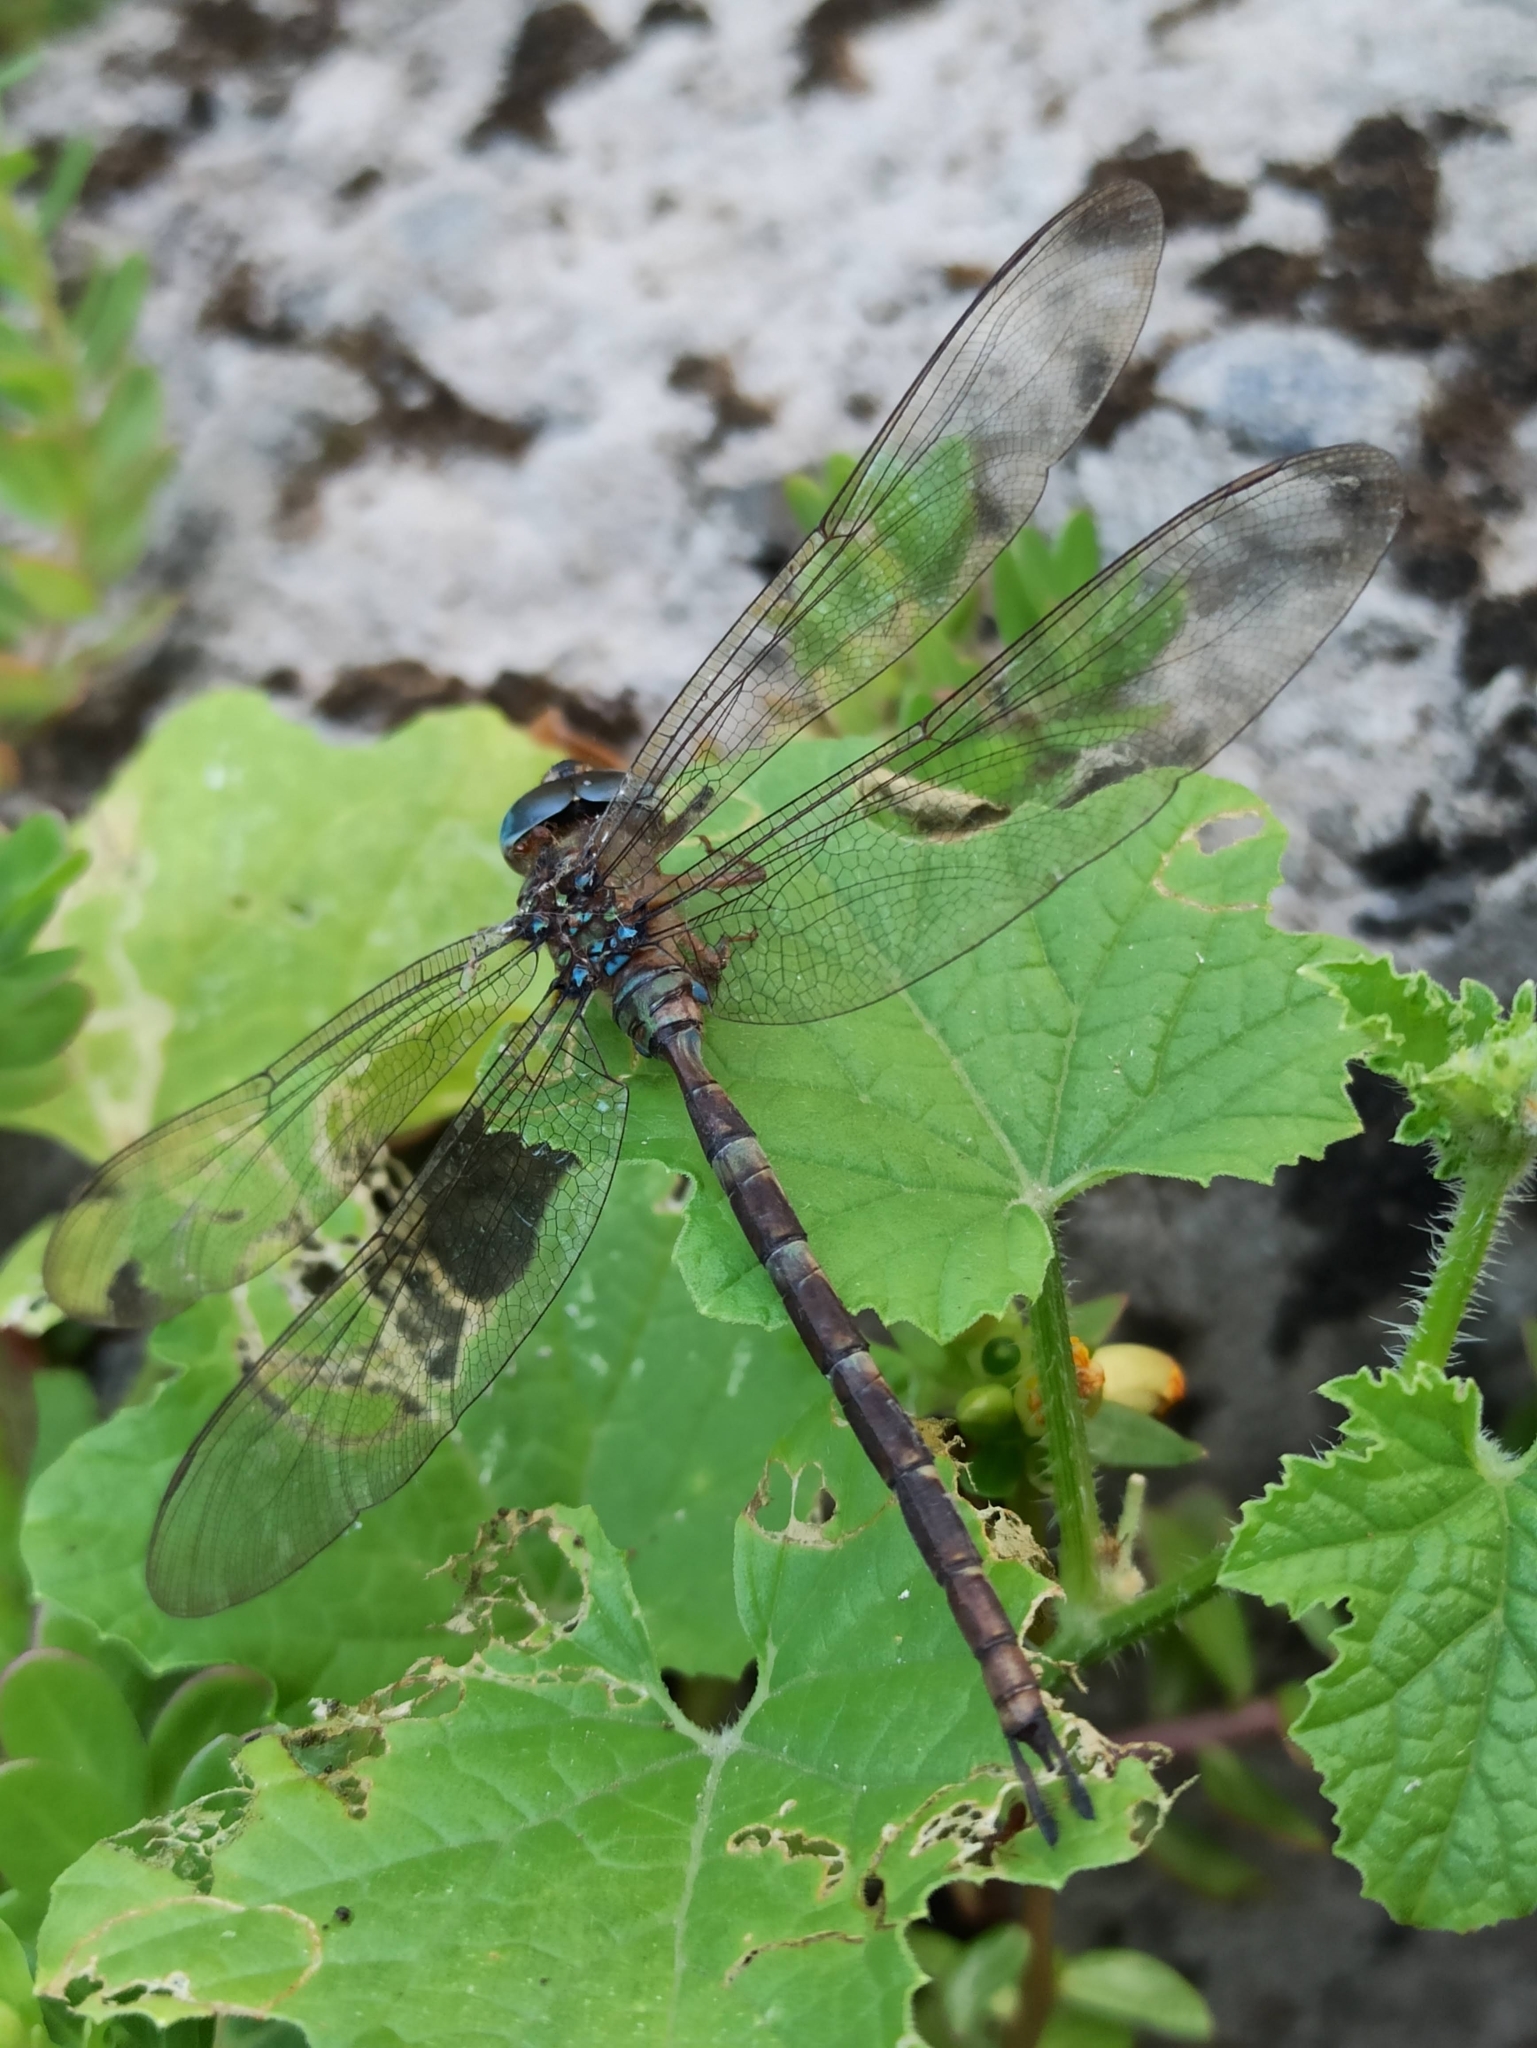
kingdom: Animalia
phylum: Arthropoda
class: Insecta
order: Odonata
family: Aeshnidae
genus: Gynacantha
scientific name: Gynacantha dravida
